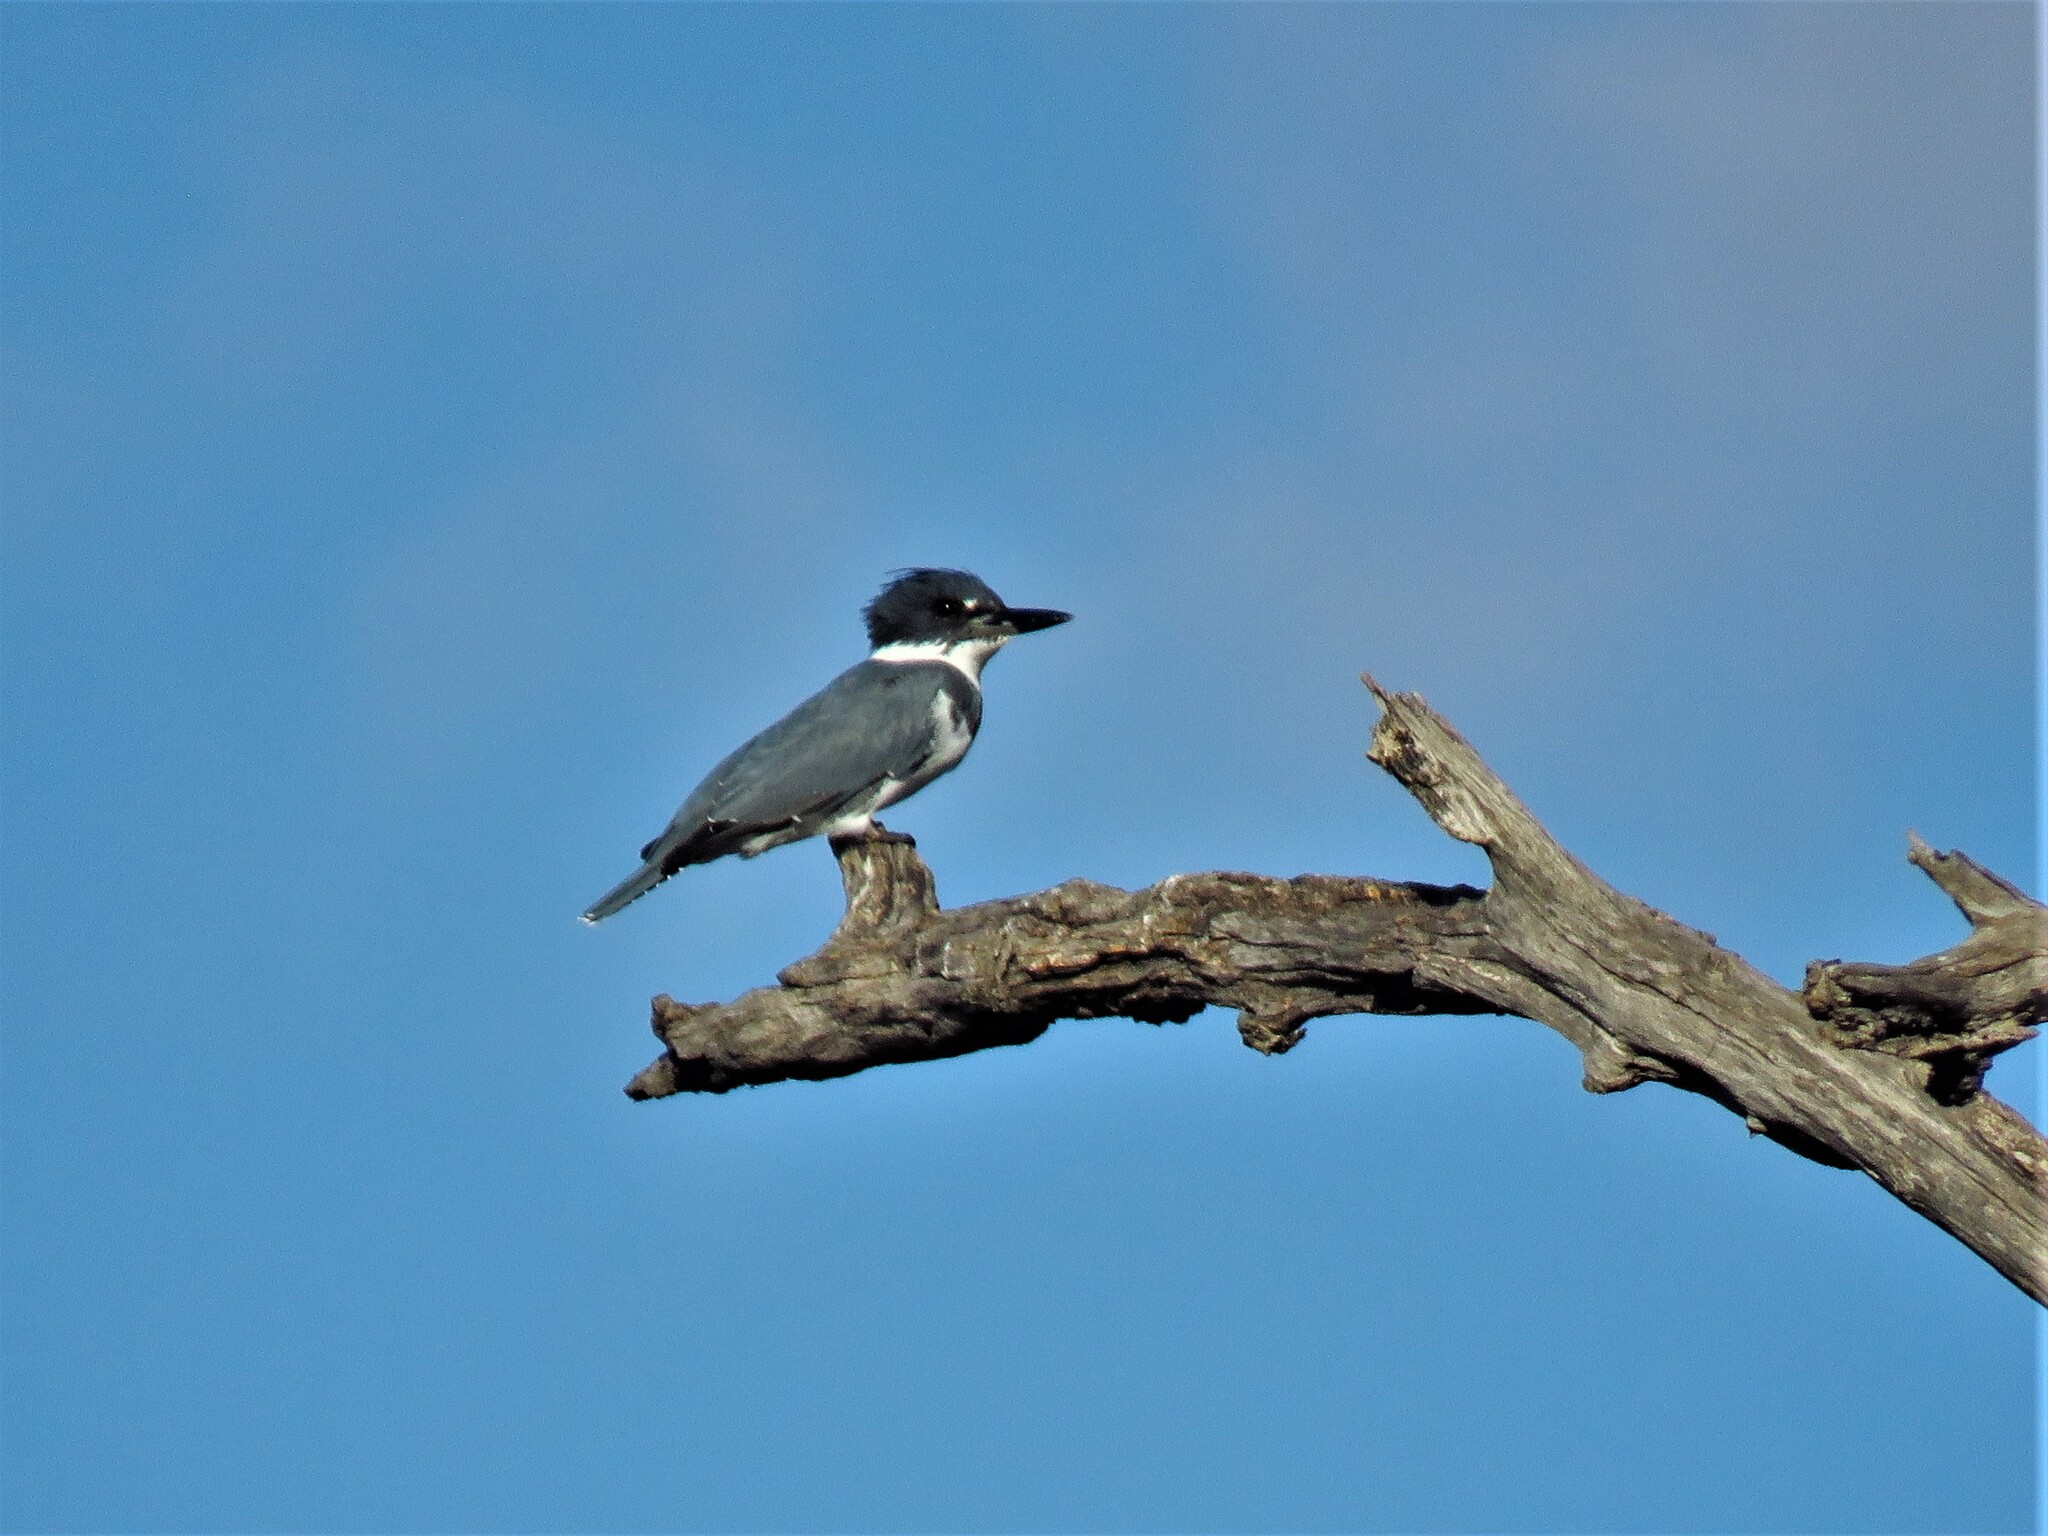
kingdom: Animalia
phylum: Chordata
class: Aves
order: Coraciiformes
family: Alcedinidae
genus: Megaceryle
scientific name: Megaceryle alcyon
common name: Belted kingfisher
